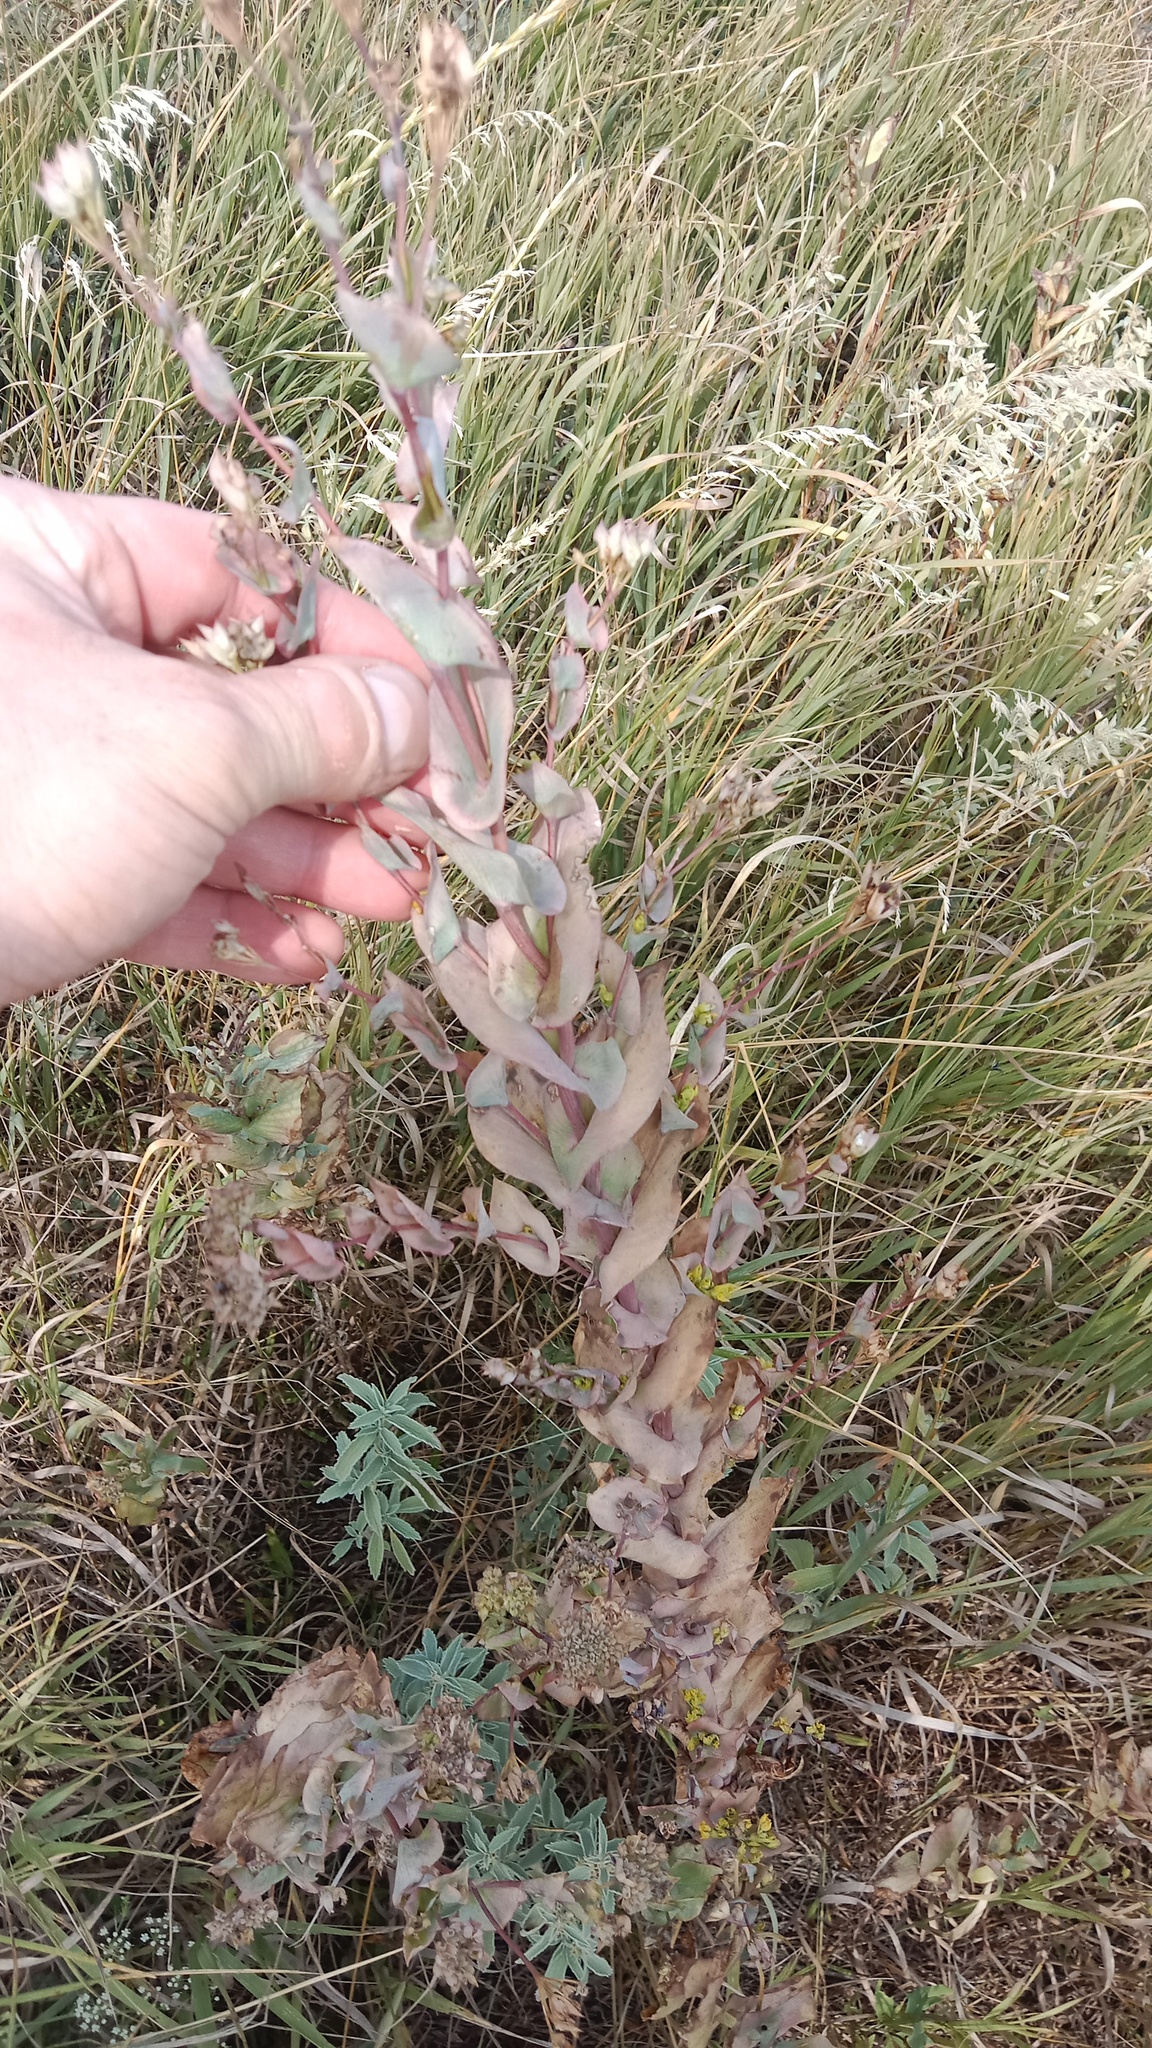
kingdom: Plantae
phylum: Tracheophyta
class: Magnoliopsida
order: Apiales
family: Apiaceae
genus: Bupleurum
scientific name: Bupleurum rotundifolium
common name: Thorow-wax
